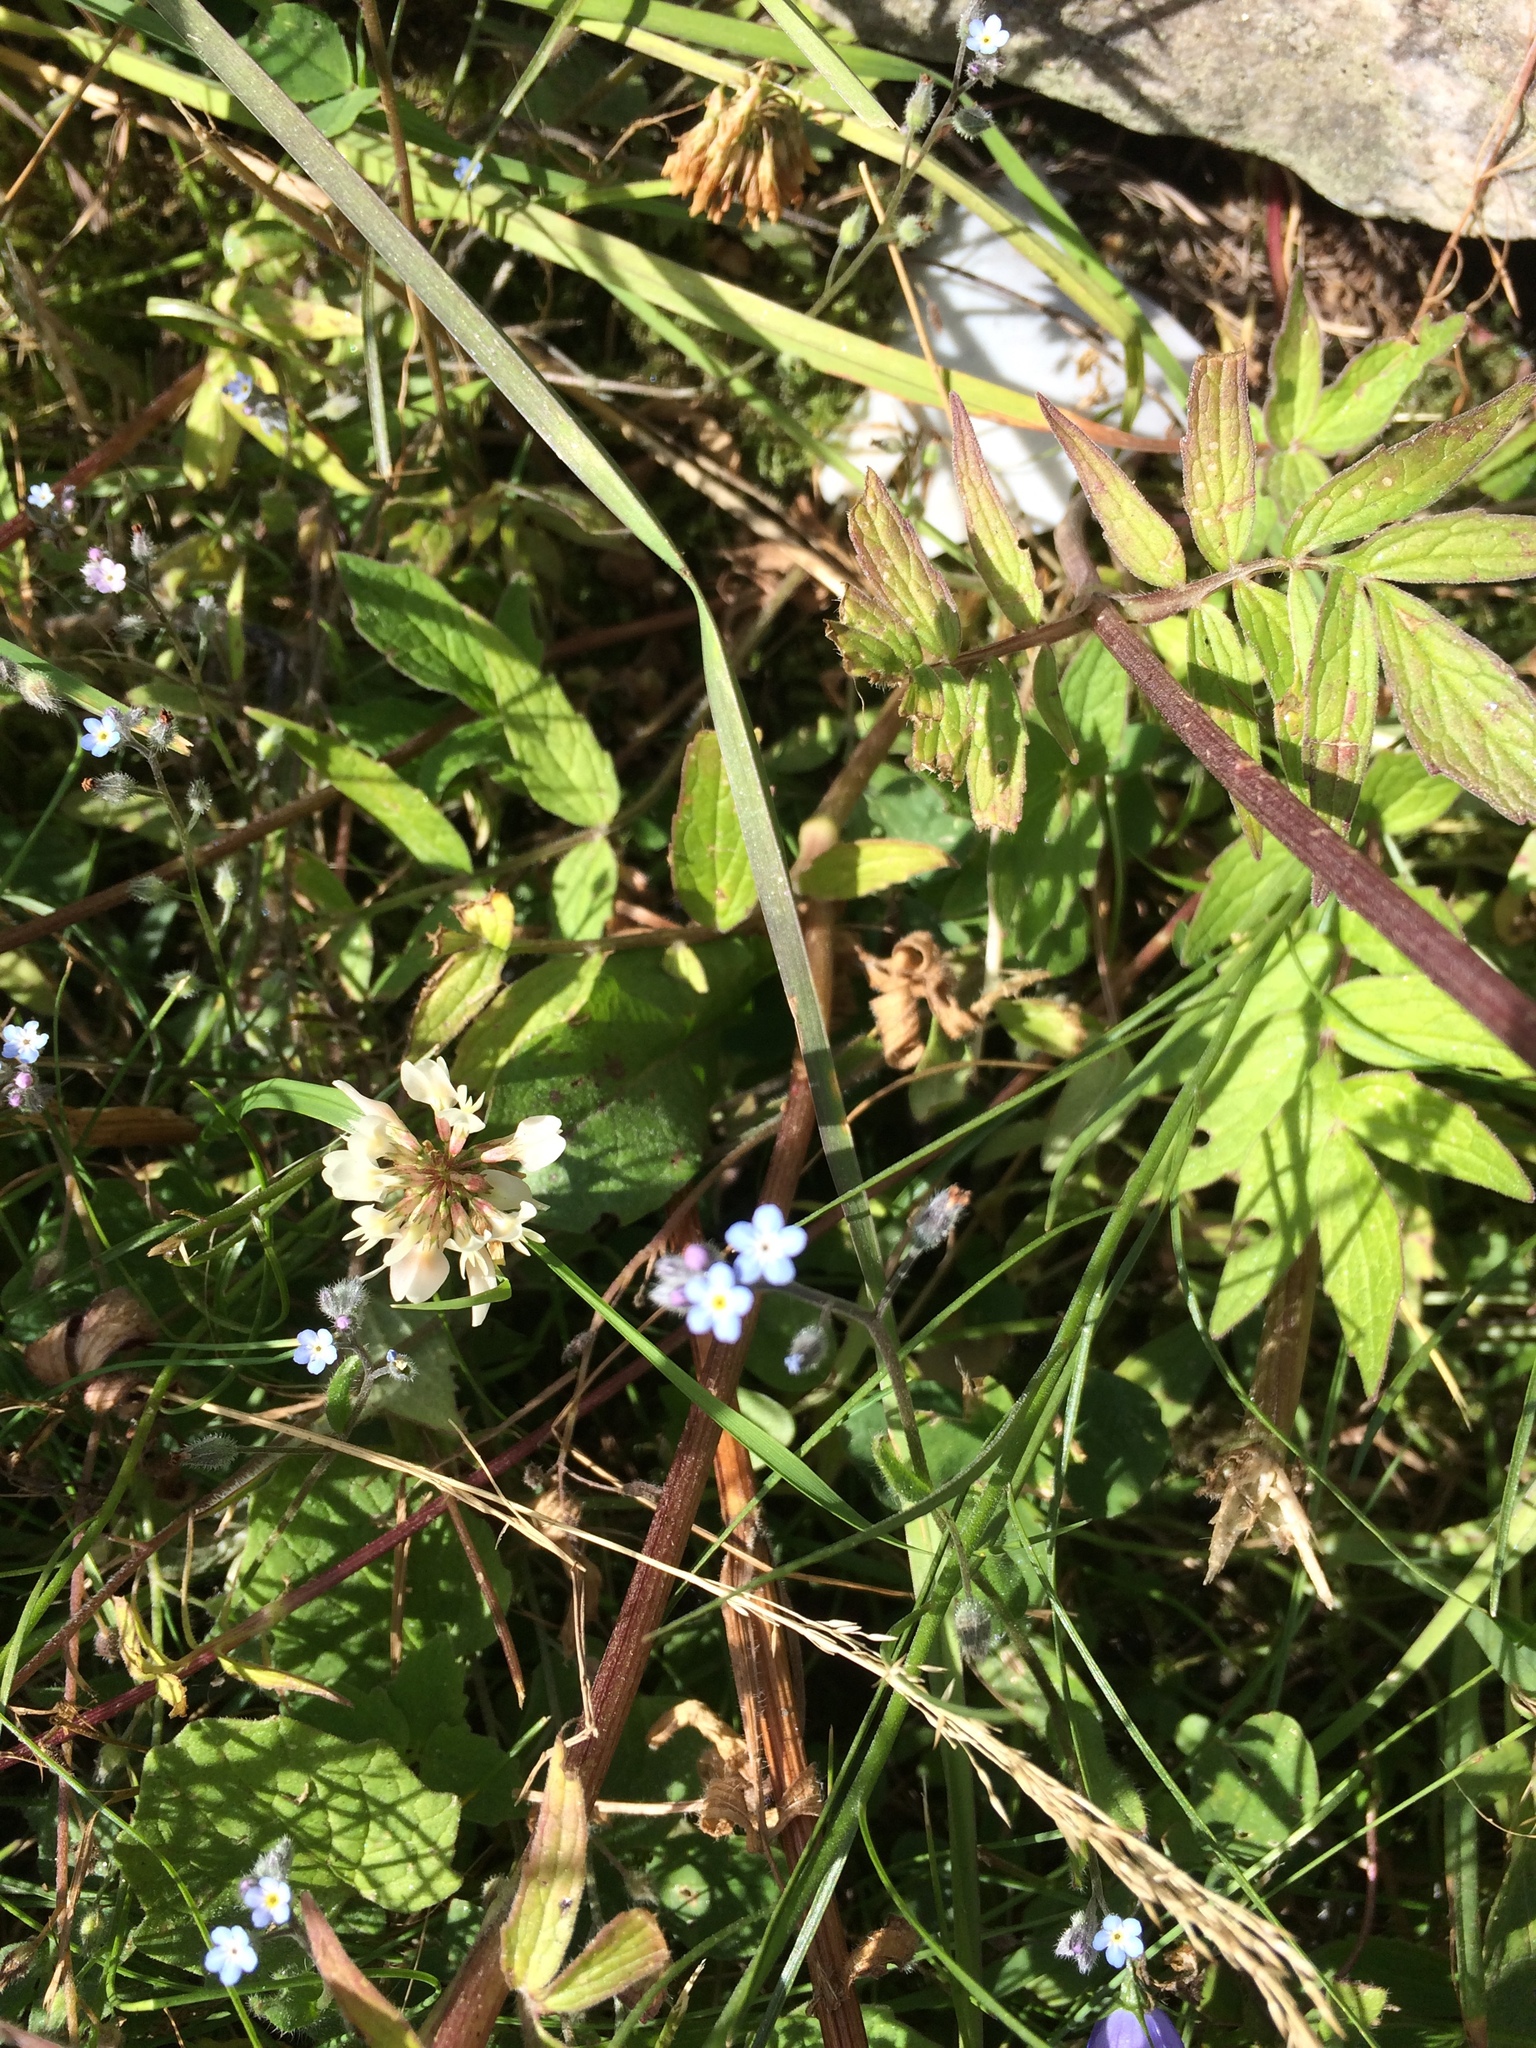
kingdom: Plantae
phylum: Tracheophyta
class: Magnoliopsida
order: Boraginales
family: Boraginaceae
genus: Myosotis
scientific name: Myosotis sylvatica
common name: Wood forget-me-not
